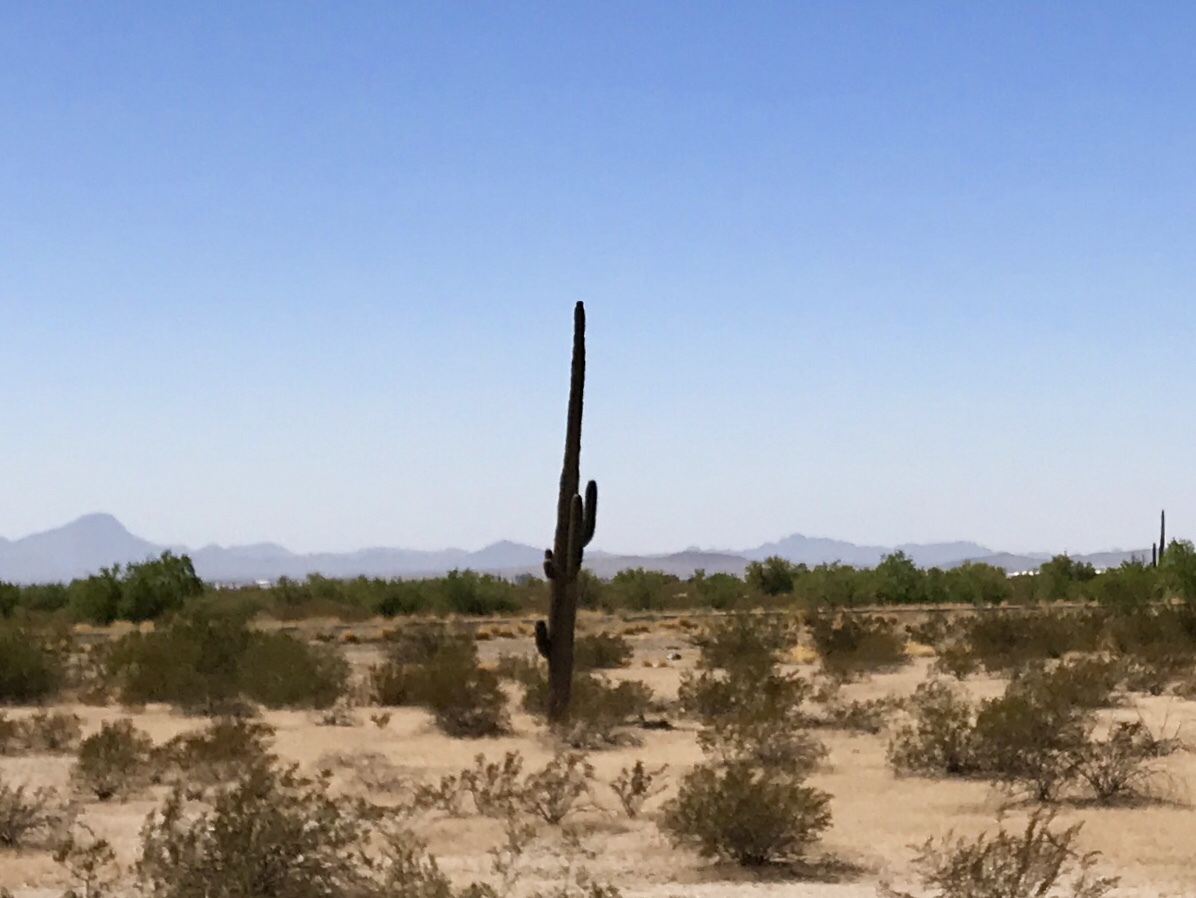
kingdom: Plantae
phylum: Tracheophyta
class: Magnoliopsida
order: Caryophyllales
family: Cactaceae
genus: Carnegiea
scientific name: Carnegiea gigantea
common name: Saguaro
